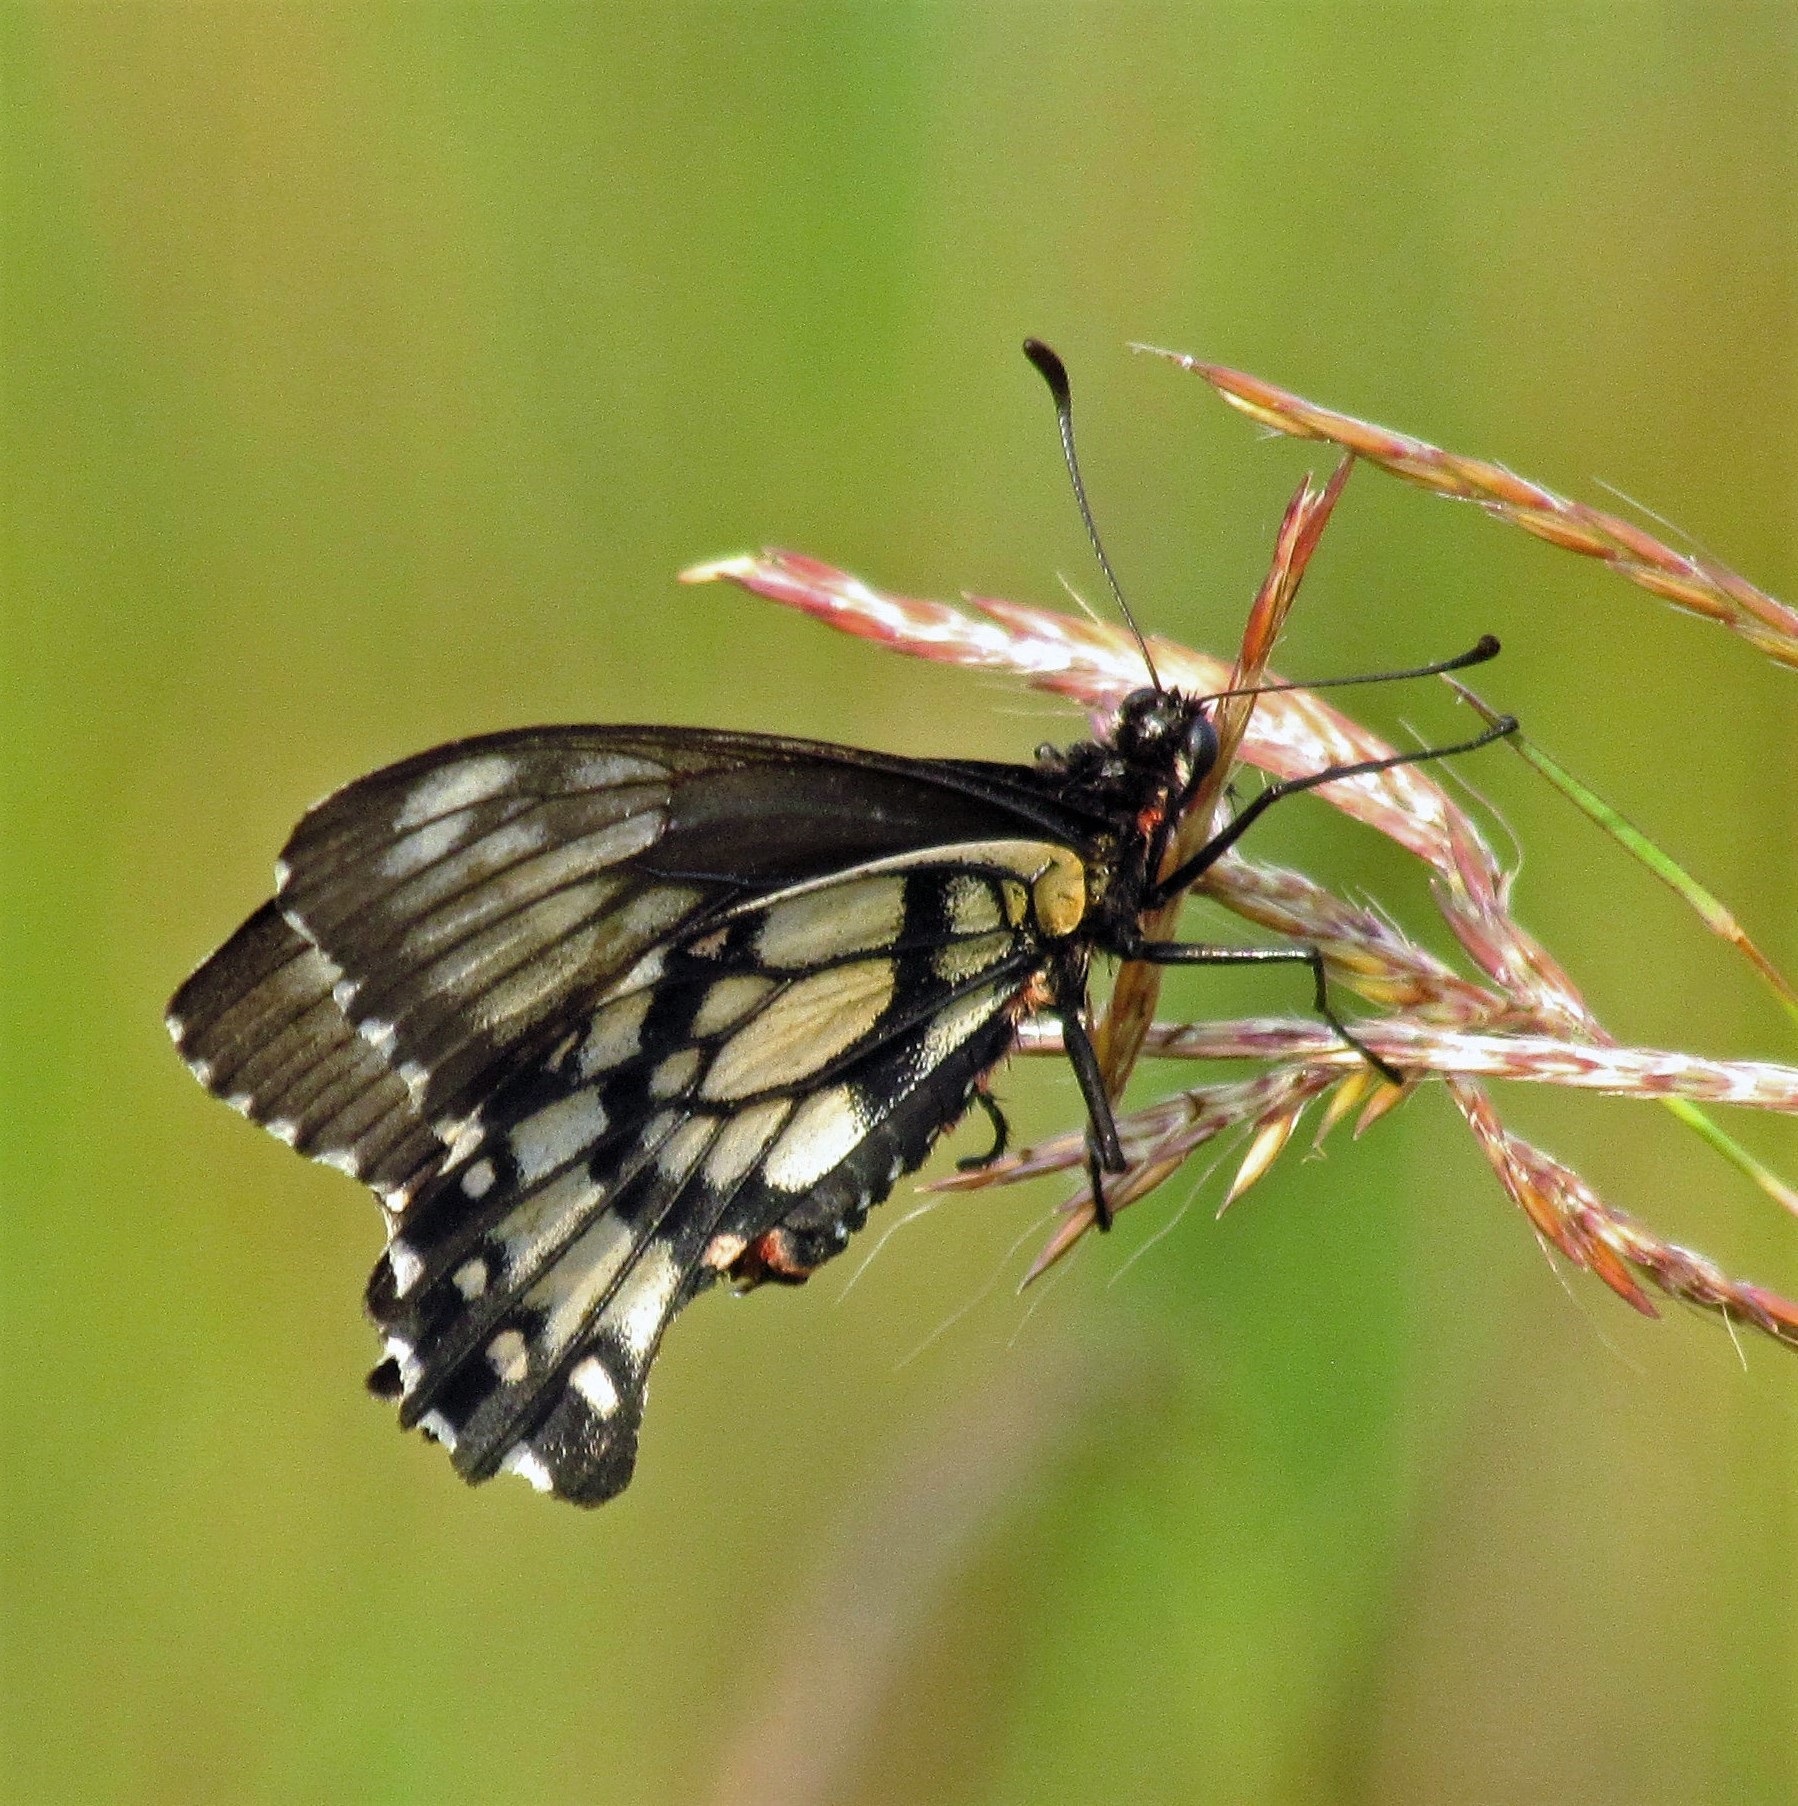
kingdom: Animalia
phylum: Arthropoda
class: Insecta
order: Lepidoptera
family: Papilionidae
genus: Euryades
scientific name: Euryades corethrus
